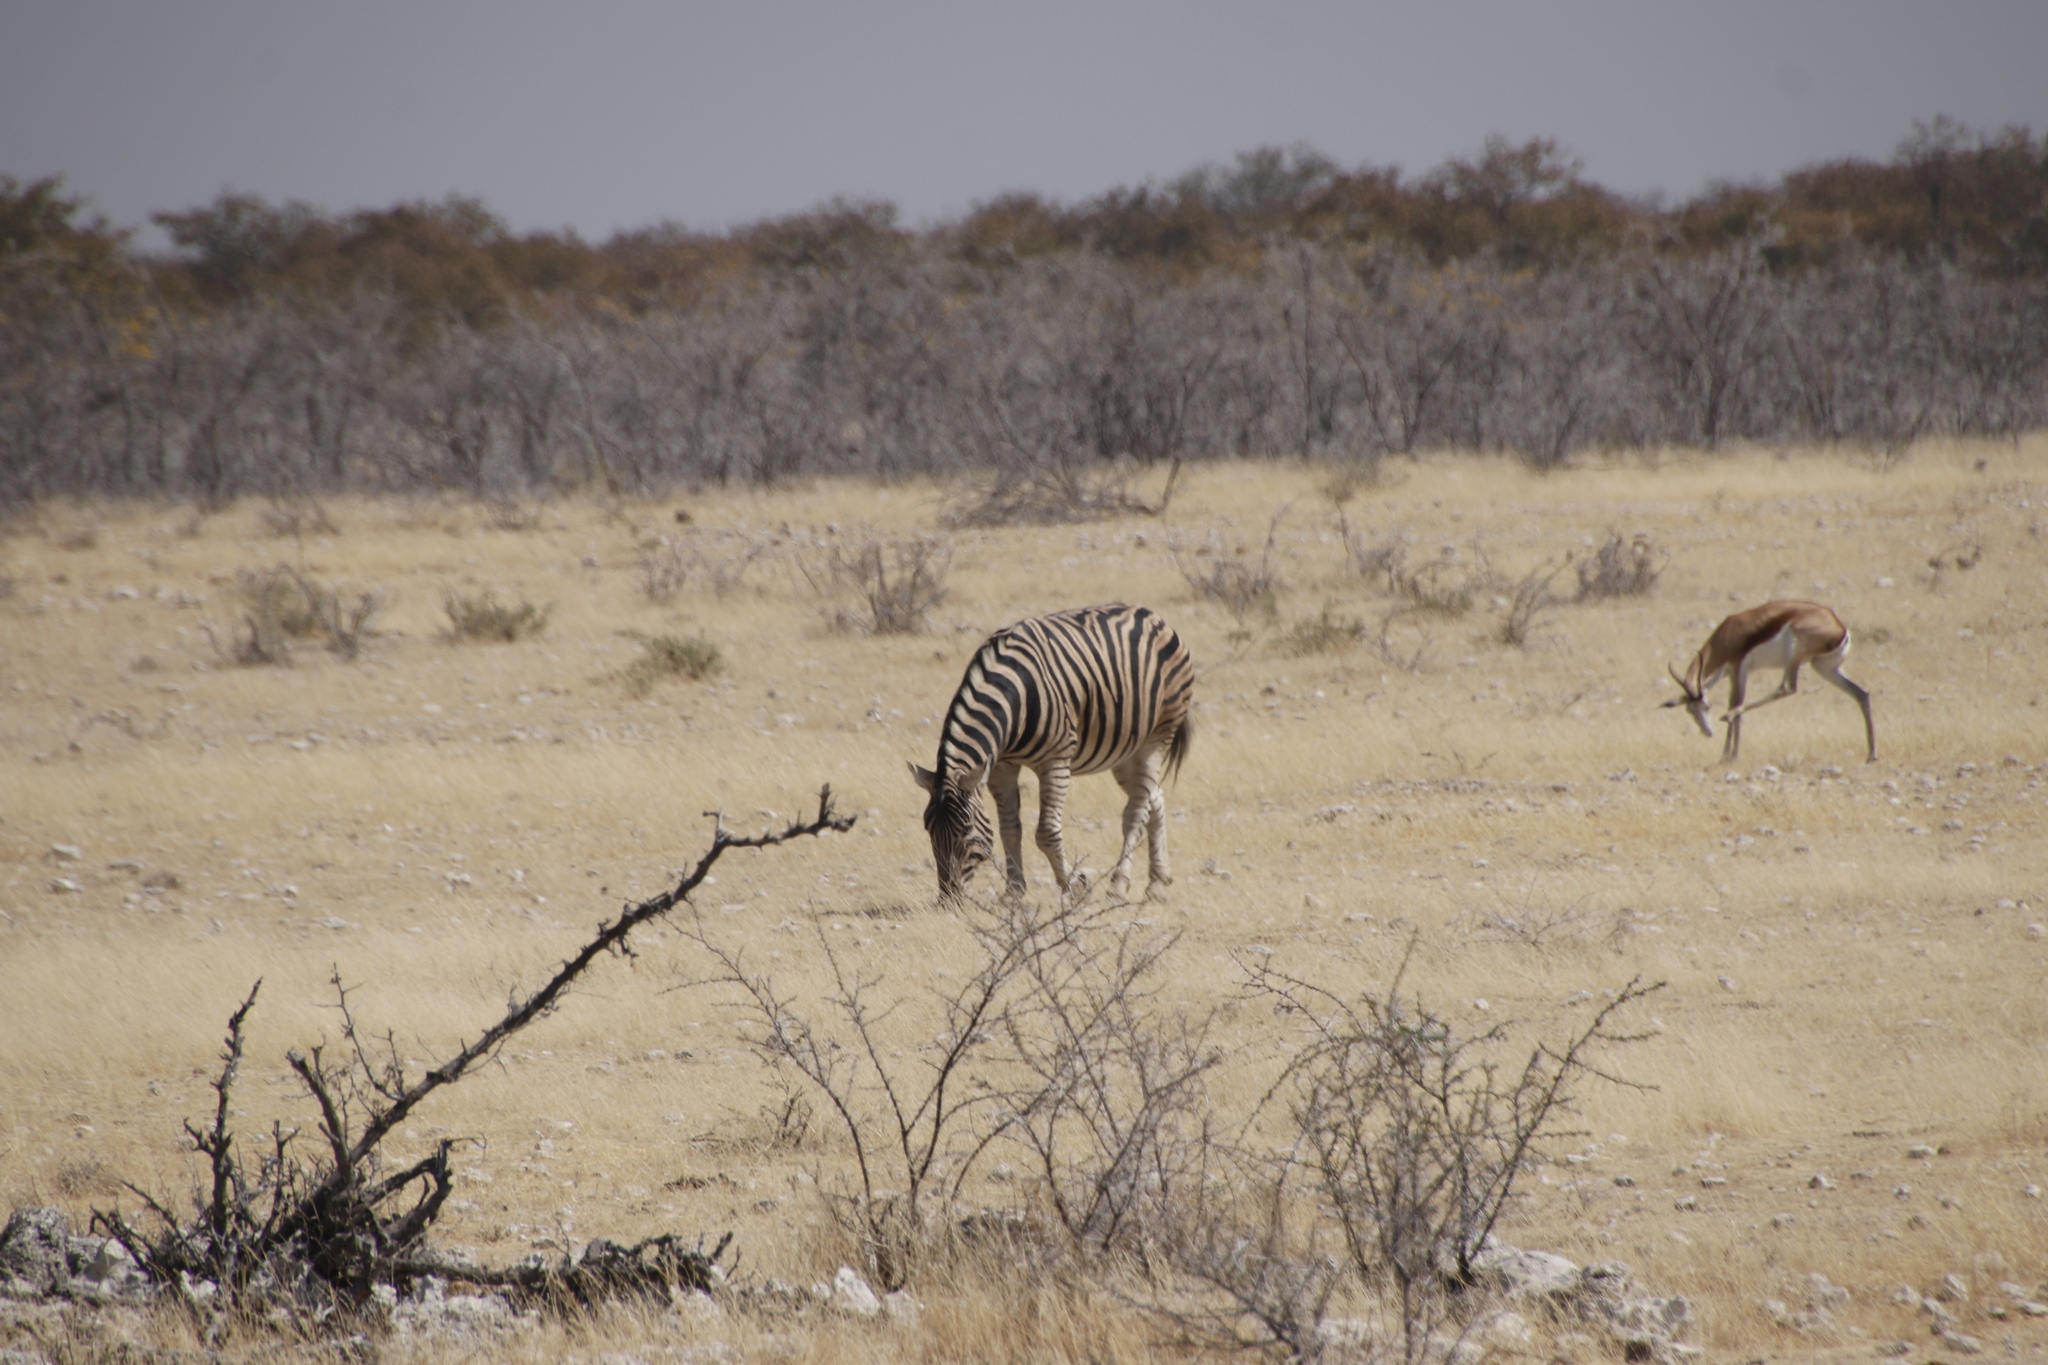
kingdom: Animalia
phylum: Chordata
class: Mammalia
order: Perissodactyla
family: Equidae
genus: Equus
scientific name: Equus quagga
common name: Plains zebra
